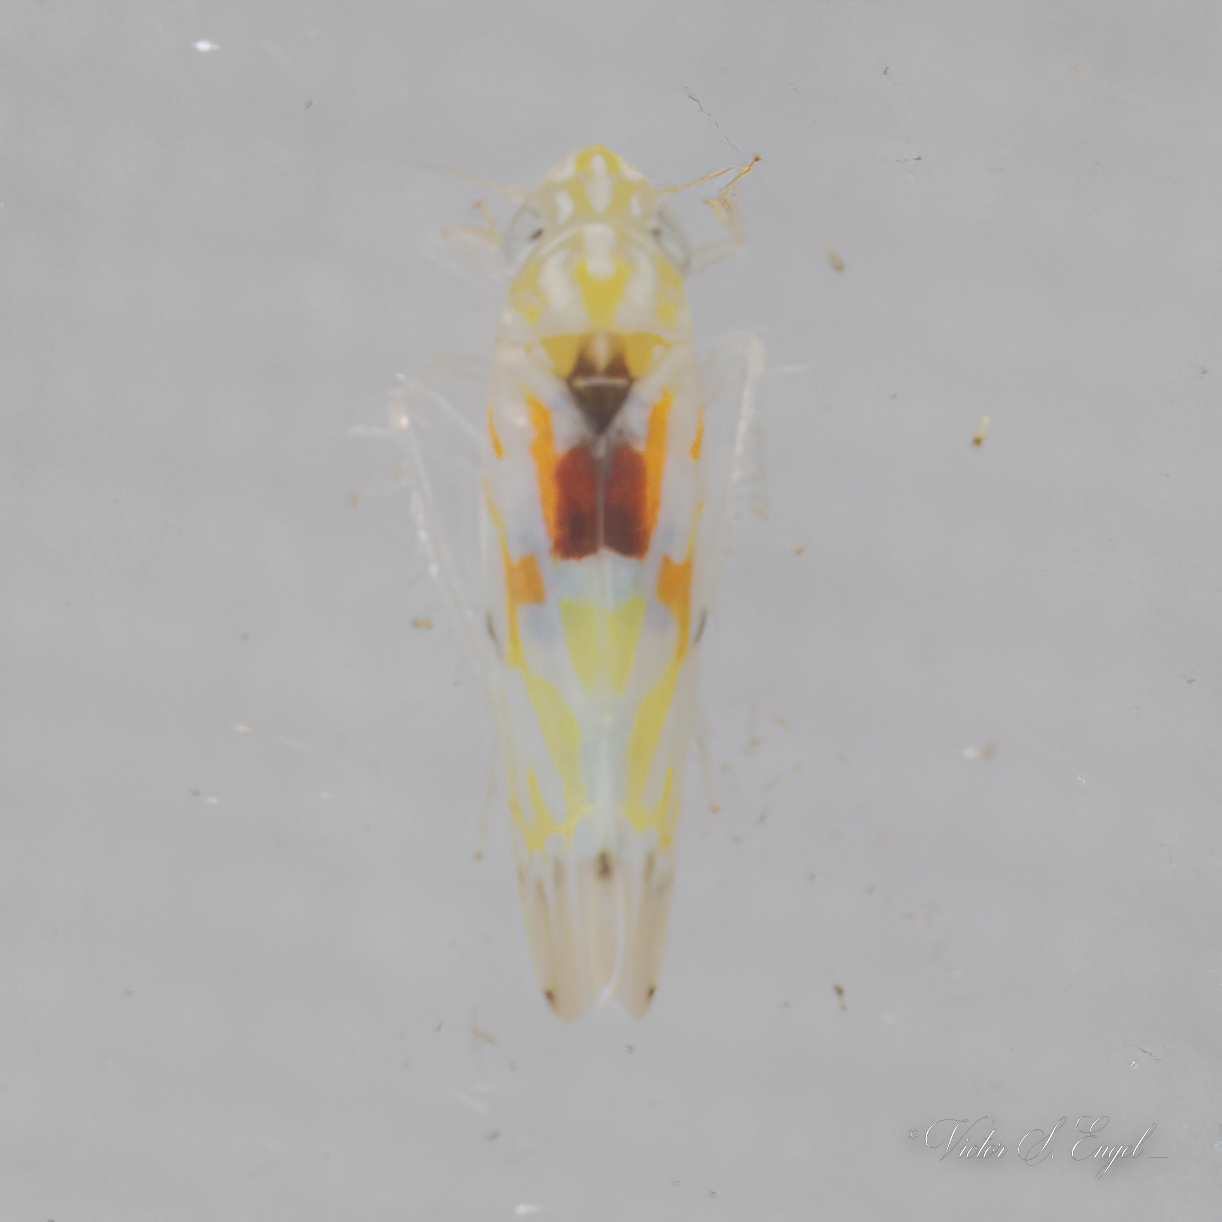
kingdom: Animalia
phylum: Arthropoda
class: Insecta
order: Hemiptera
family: Cicadellidae
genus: Erythroneura
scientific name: Erythroneura octonotata
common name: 8-spotted leafhopper
